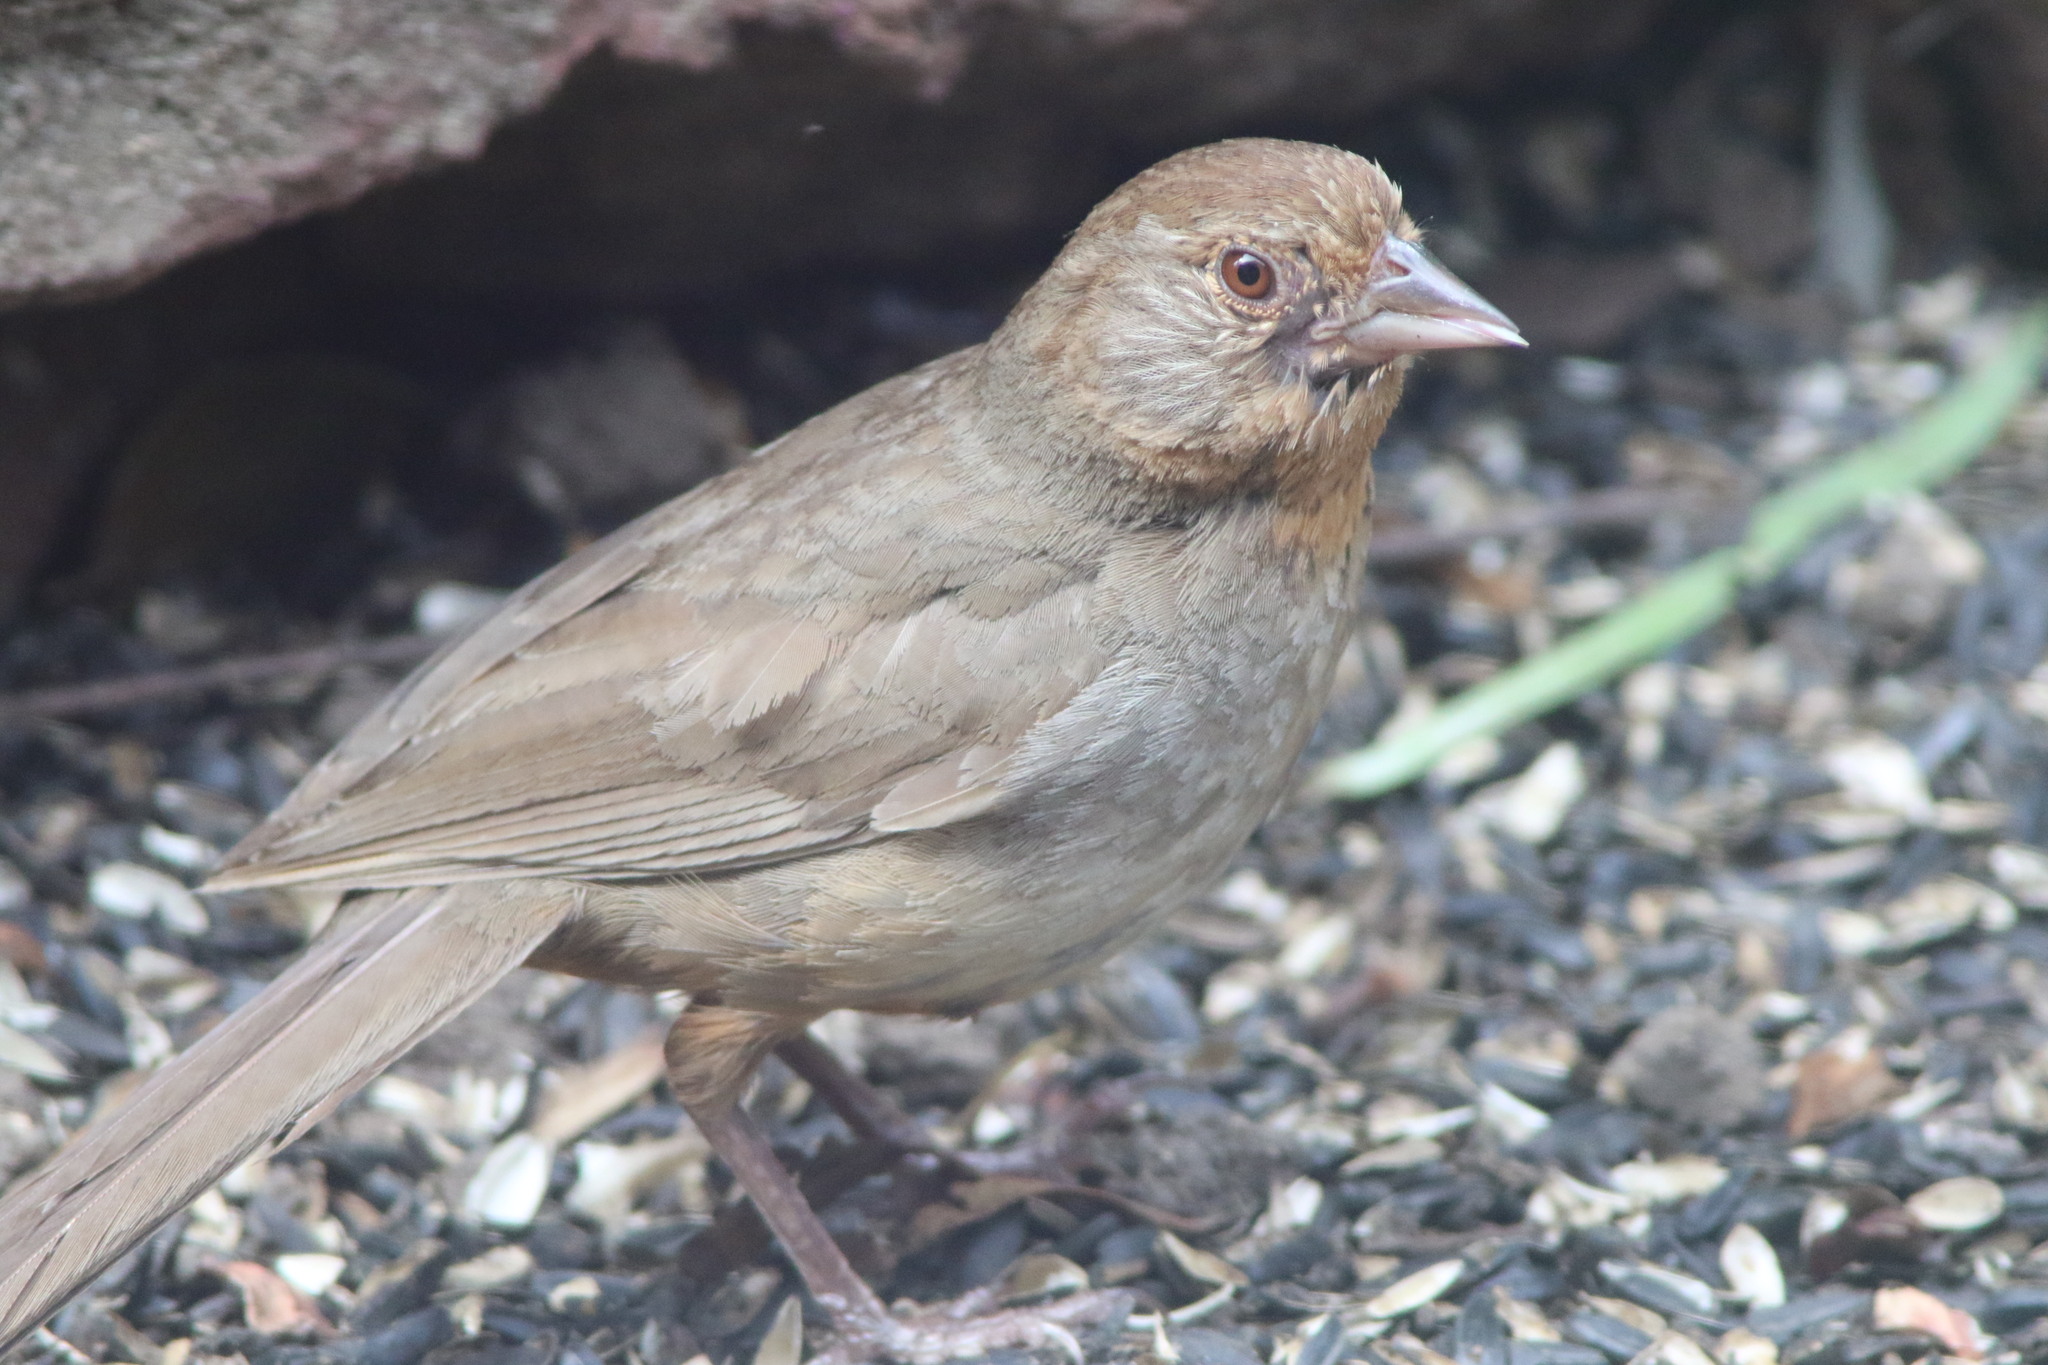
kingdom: Animalia
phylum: Chordata
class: Aves
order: Passeriformes
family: Passerellidae
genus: Melozone
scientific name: Melozone crissalis
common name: California towhee
